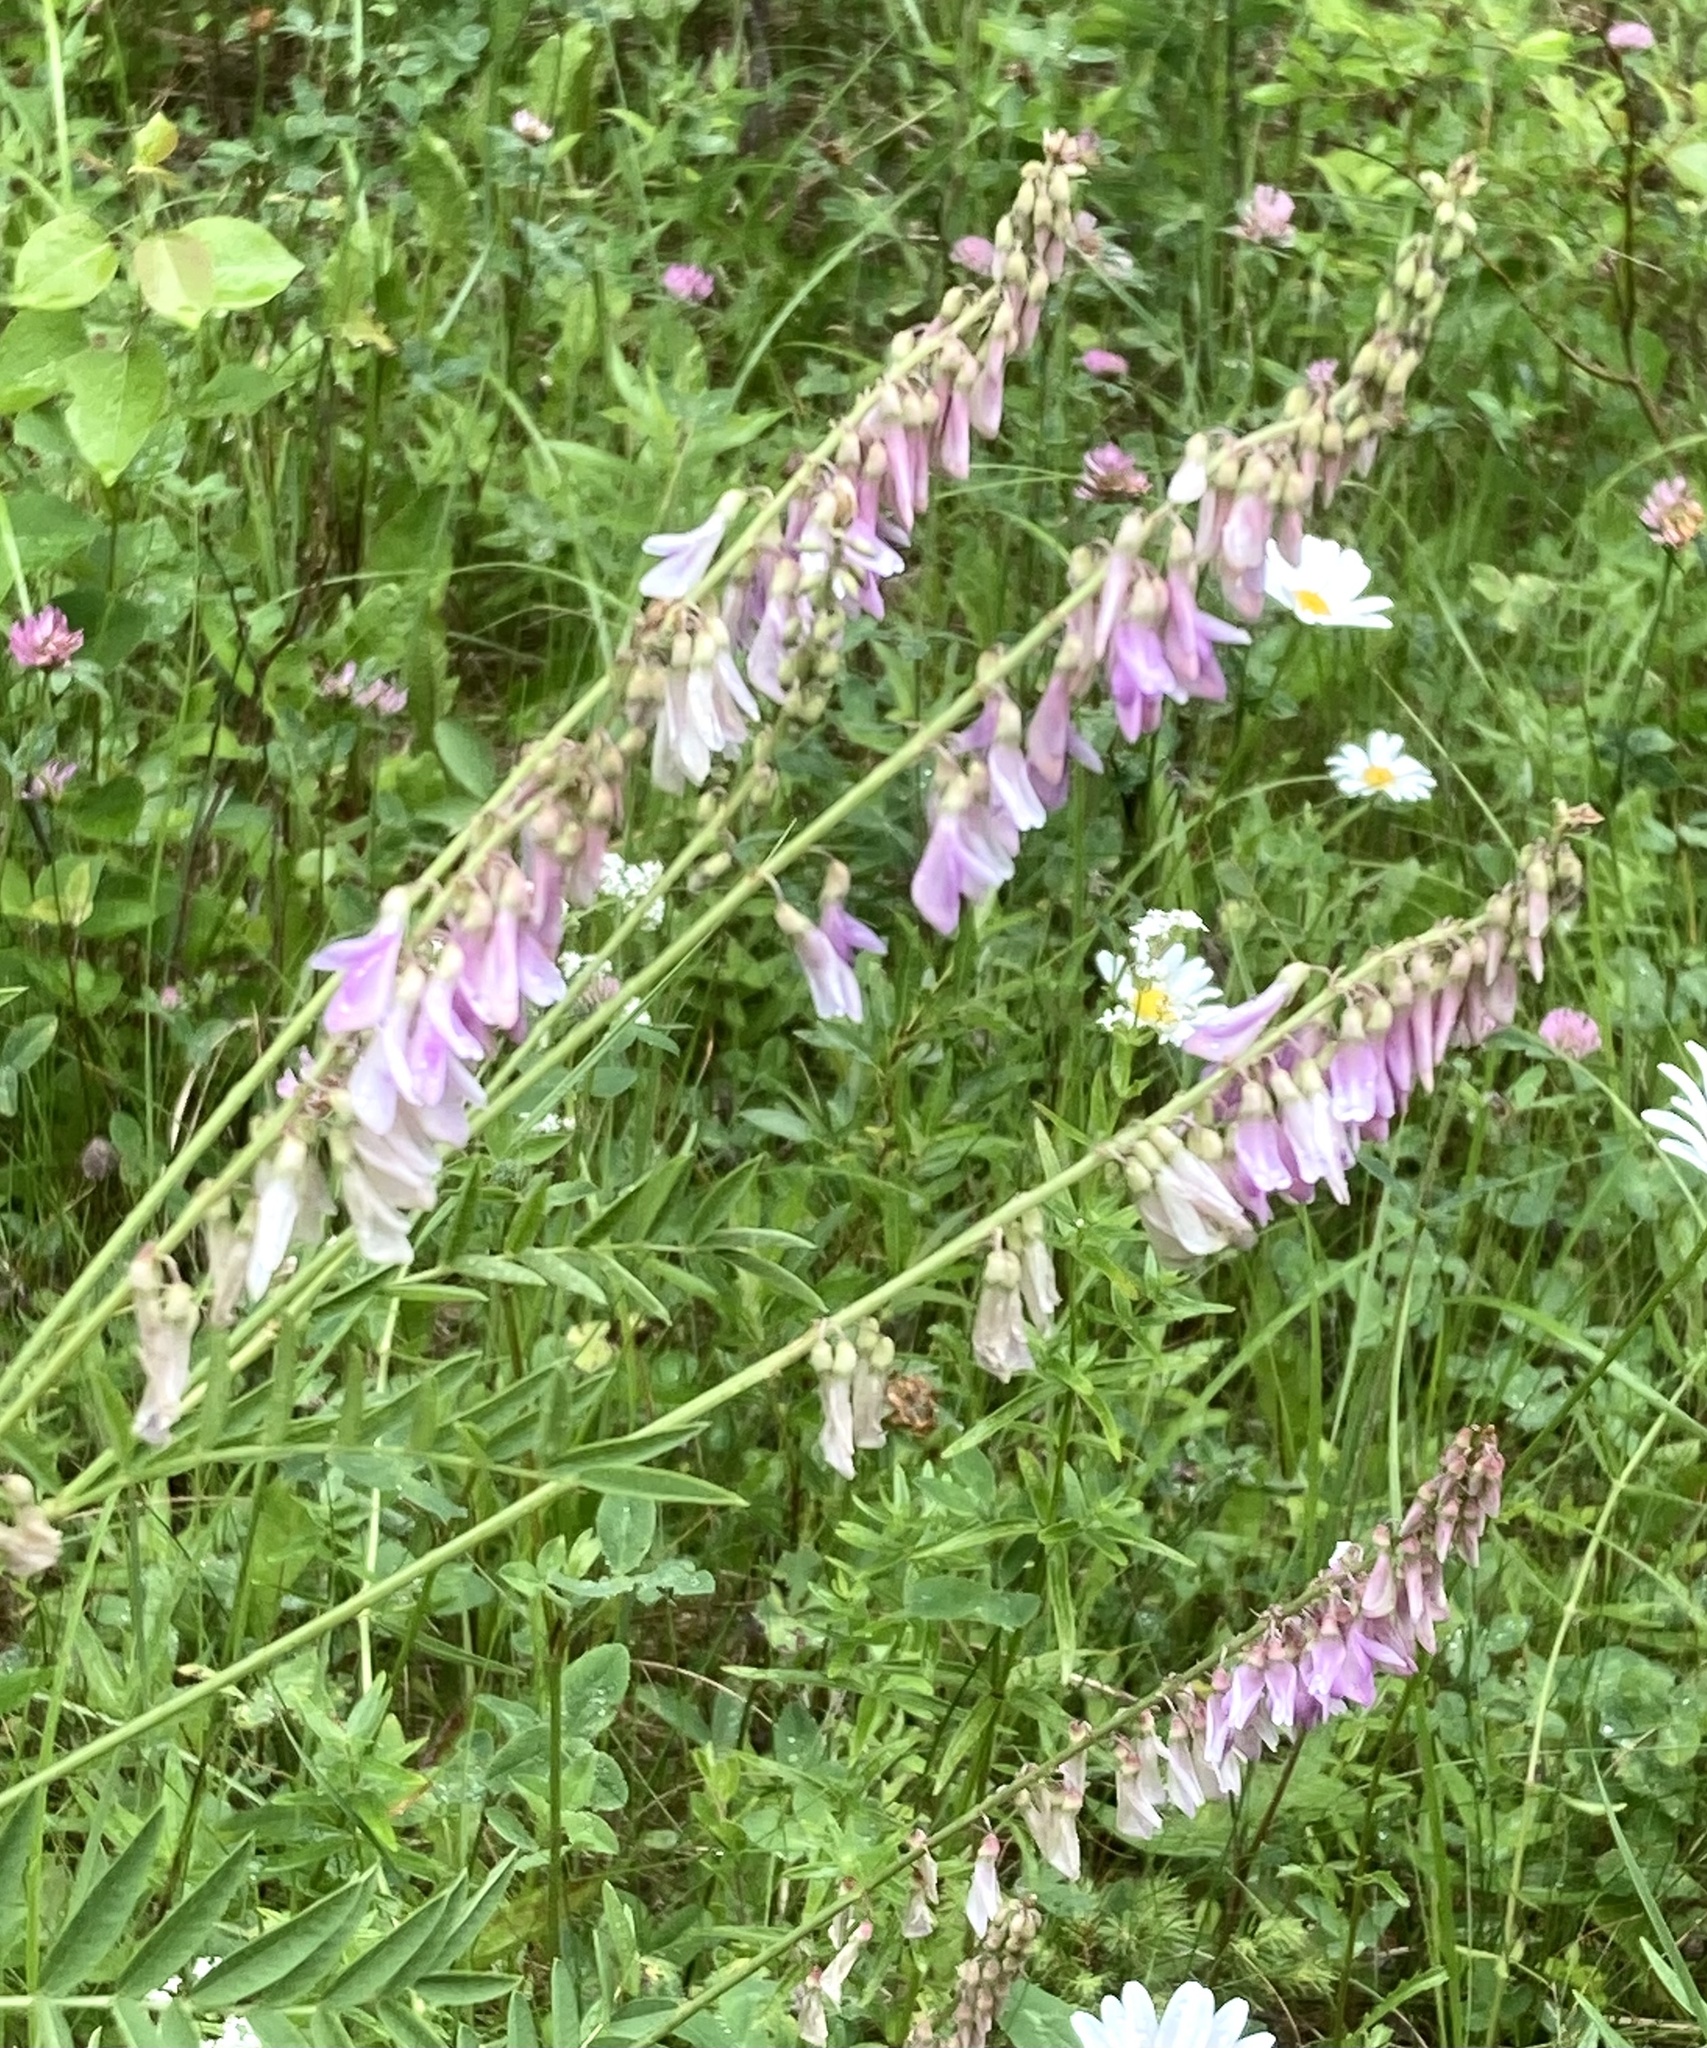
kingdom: Plantae
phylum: Tracheophyta
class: Magnoliopsida
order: Fabales
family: Fabaceae
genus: Hedysarum
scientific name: Hedysarum alpinum
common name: Alpine sweet-vetch
